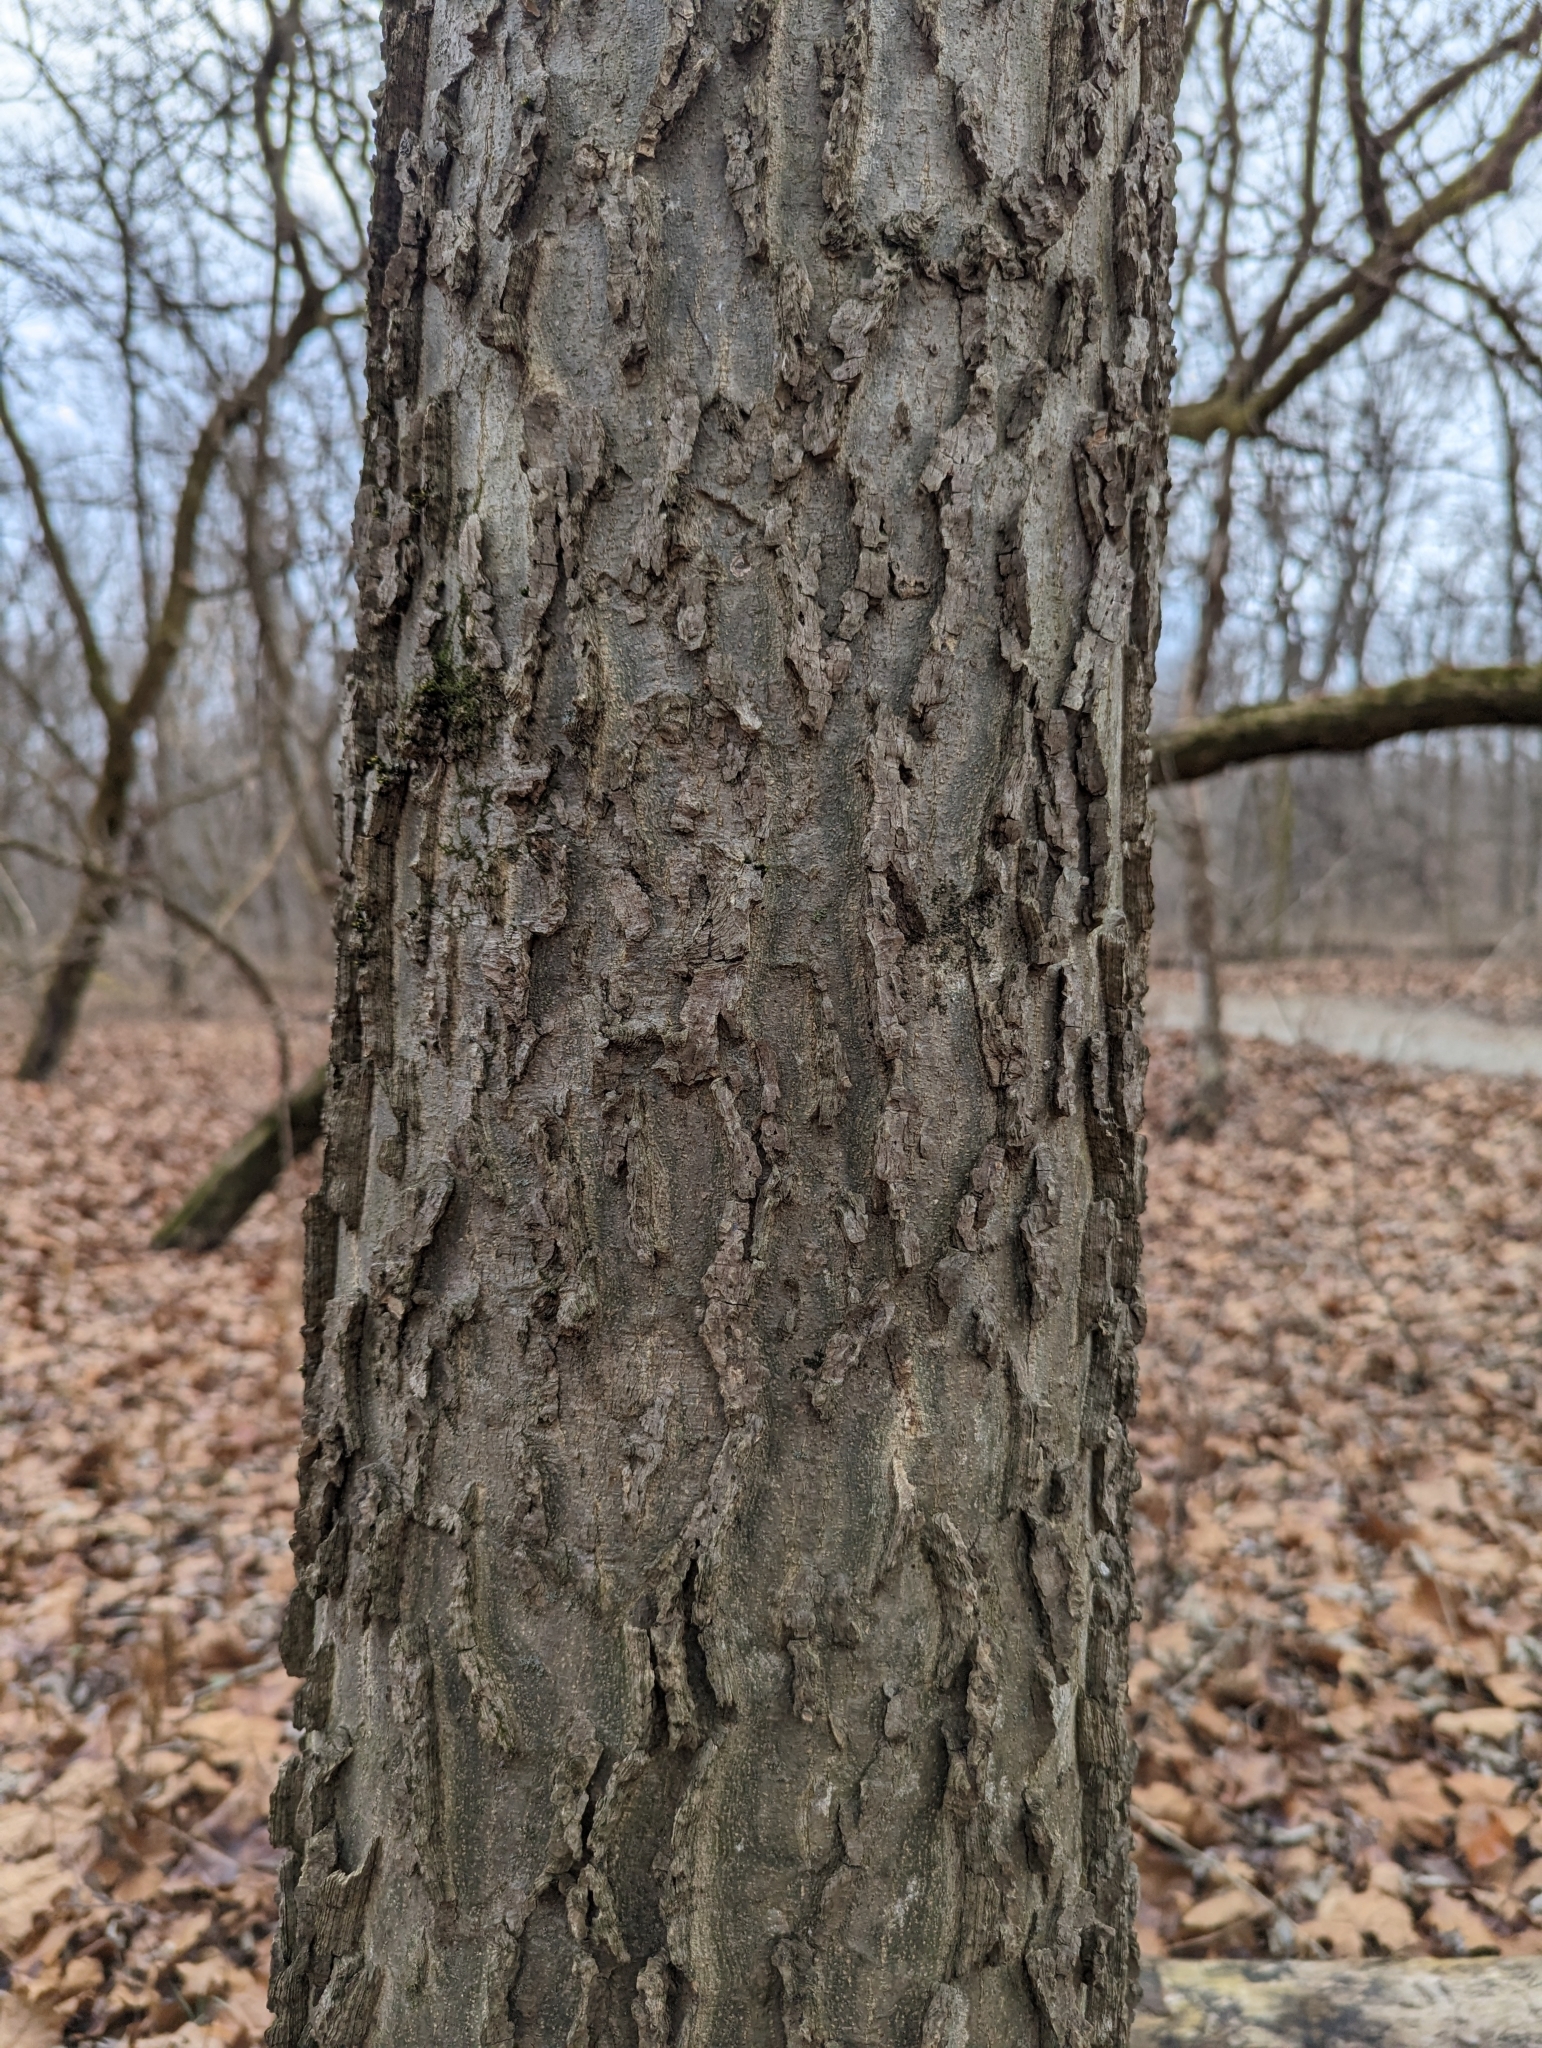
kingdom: Plantae
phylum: Tracheophyta
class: Magnoliopsida
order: Rosales
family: Cannabaceae
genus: Celtis
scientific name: Celtis occidentalis
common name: Common hackberry
